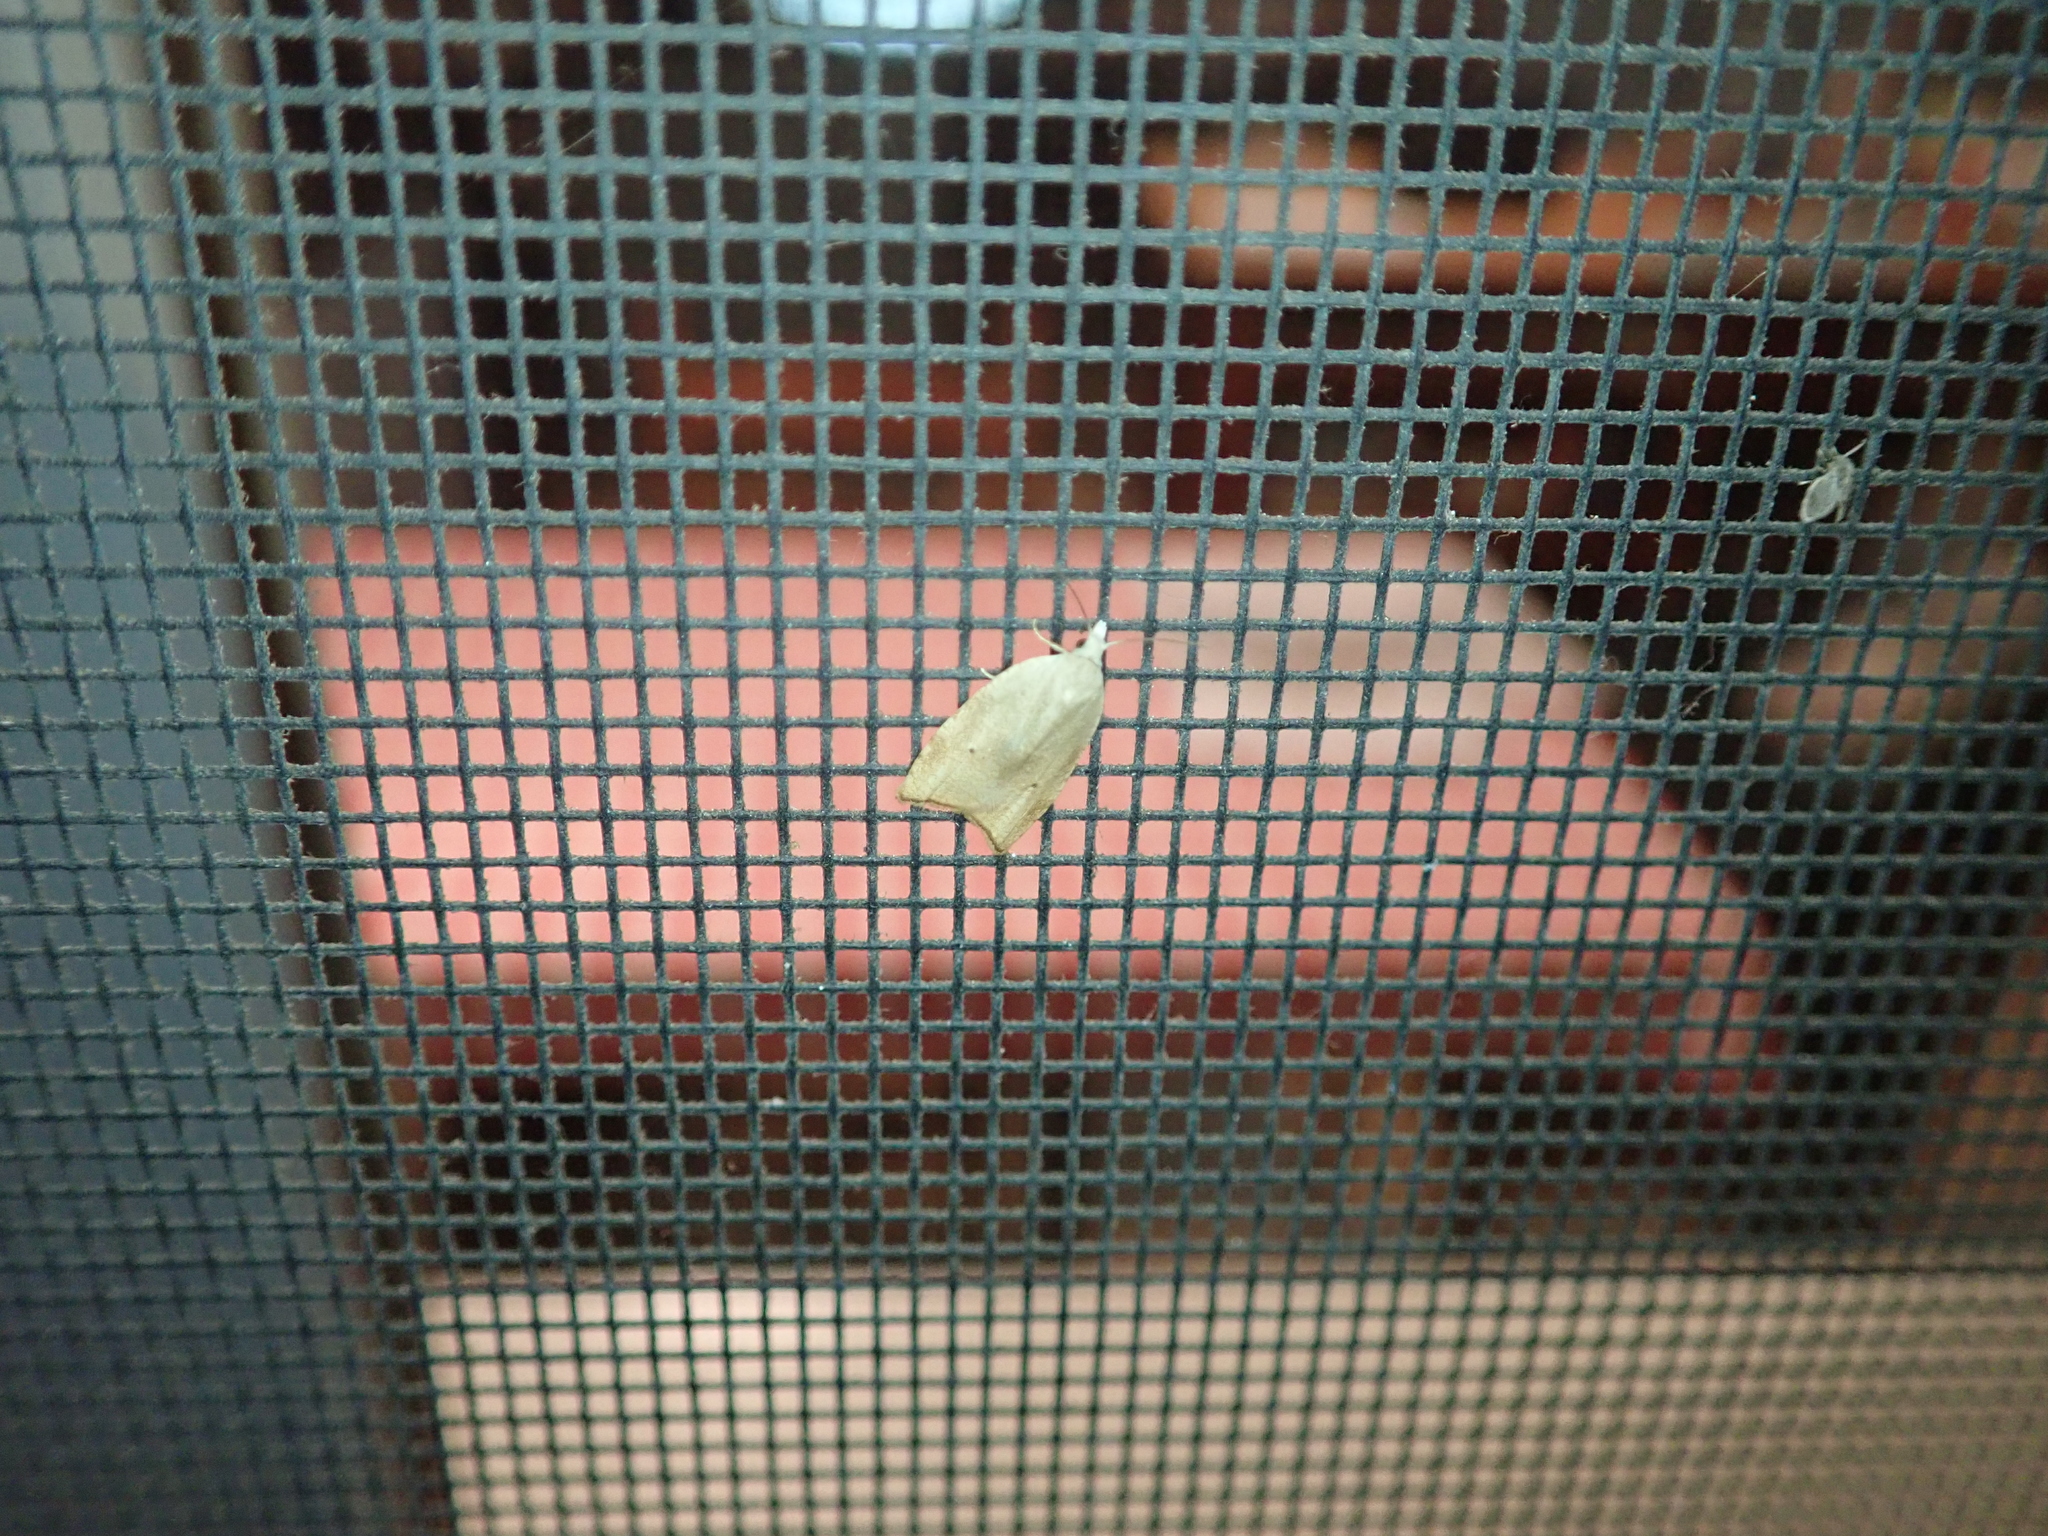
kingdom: Animalia
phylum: Arthropoda
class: Insecta
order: Lepidoptera
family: Tortricidae
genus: Coelostathma
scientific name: Coelostathma discopunctana
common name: Batman moth
